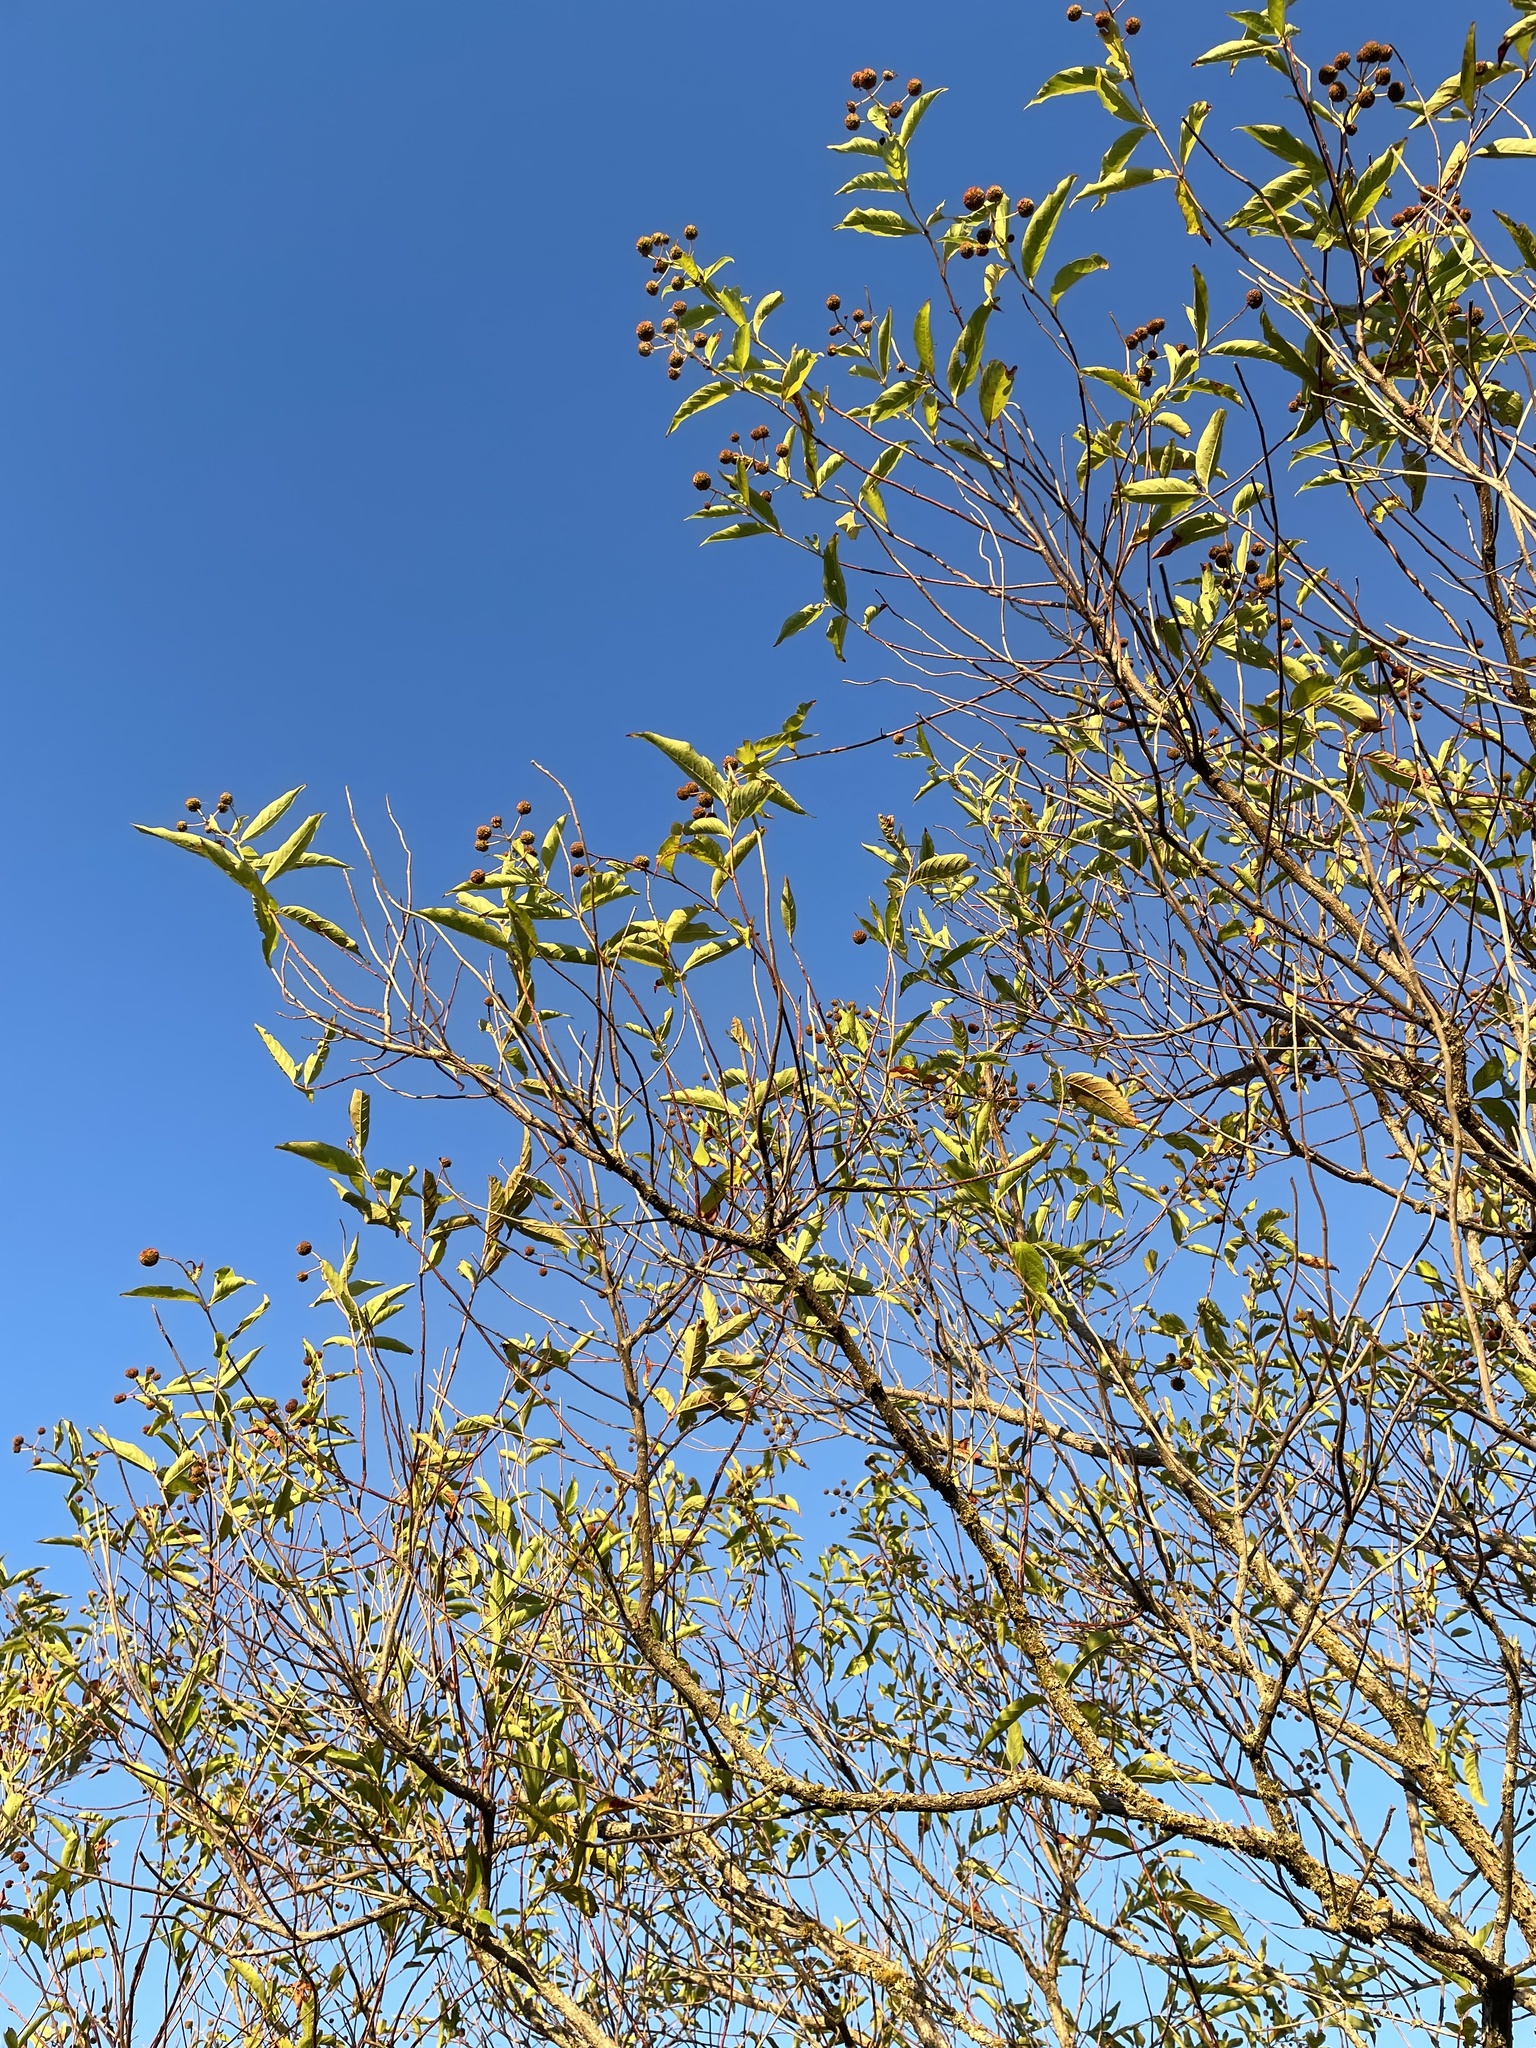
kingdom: Plantae
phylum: Tracheophyta
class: Magnoliopsida
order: Gentianales
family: Rubiaceae
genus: Cephalanthus
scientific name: Cephalanthus occidentalis
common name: Button-willow
